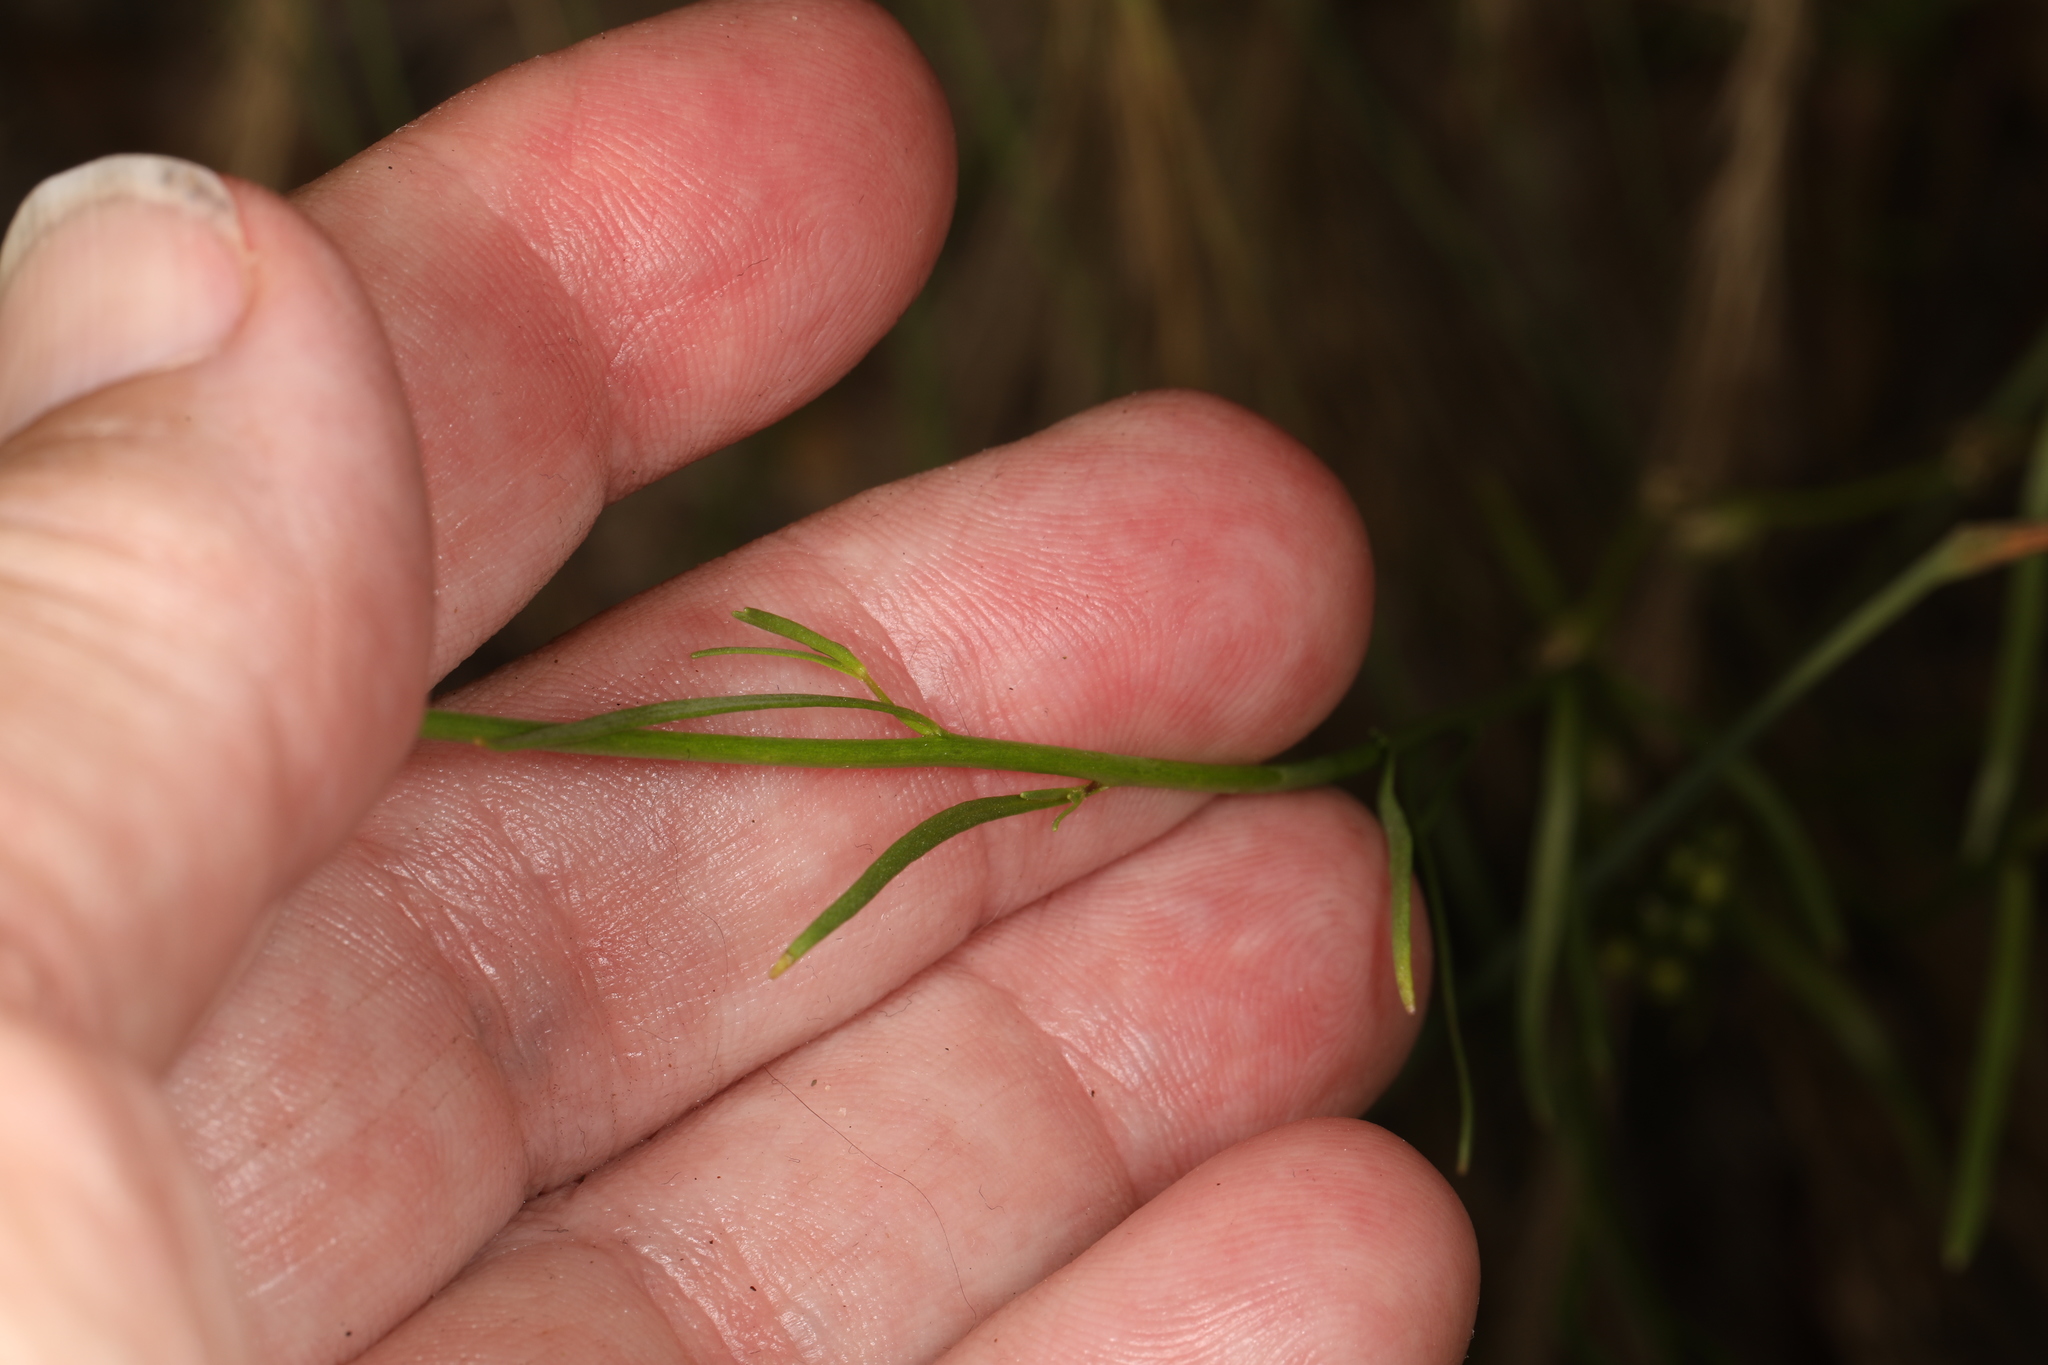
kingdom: Plantae
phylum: Tracheophyta
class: Magnoliopsida
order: Lamiales
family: Plantaginaceae
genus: Nuttallanthus
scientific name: Nuttallanthus canadensis
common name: Blue toadflax
